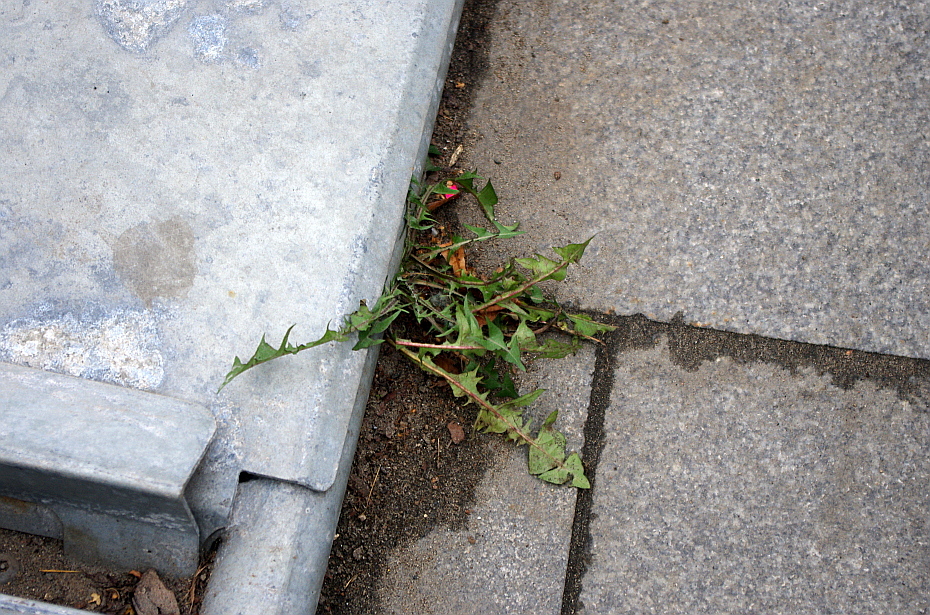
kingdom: Plantae
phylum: Tracheophyta
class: Magnoliopsida
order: Asterales
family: Asteraceae
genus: Taraxacum
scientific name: Taraxacum officinale
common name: Common dandelion
